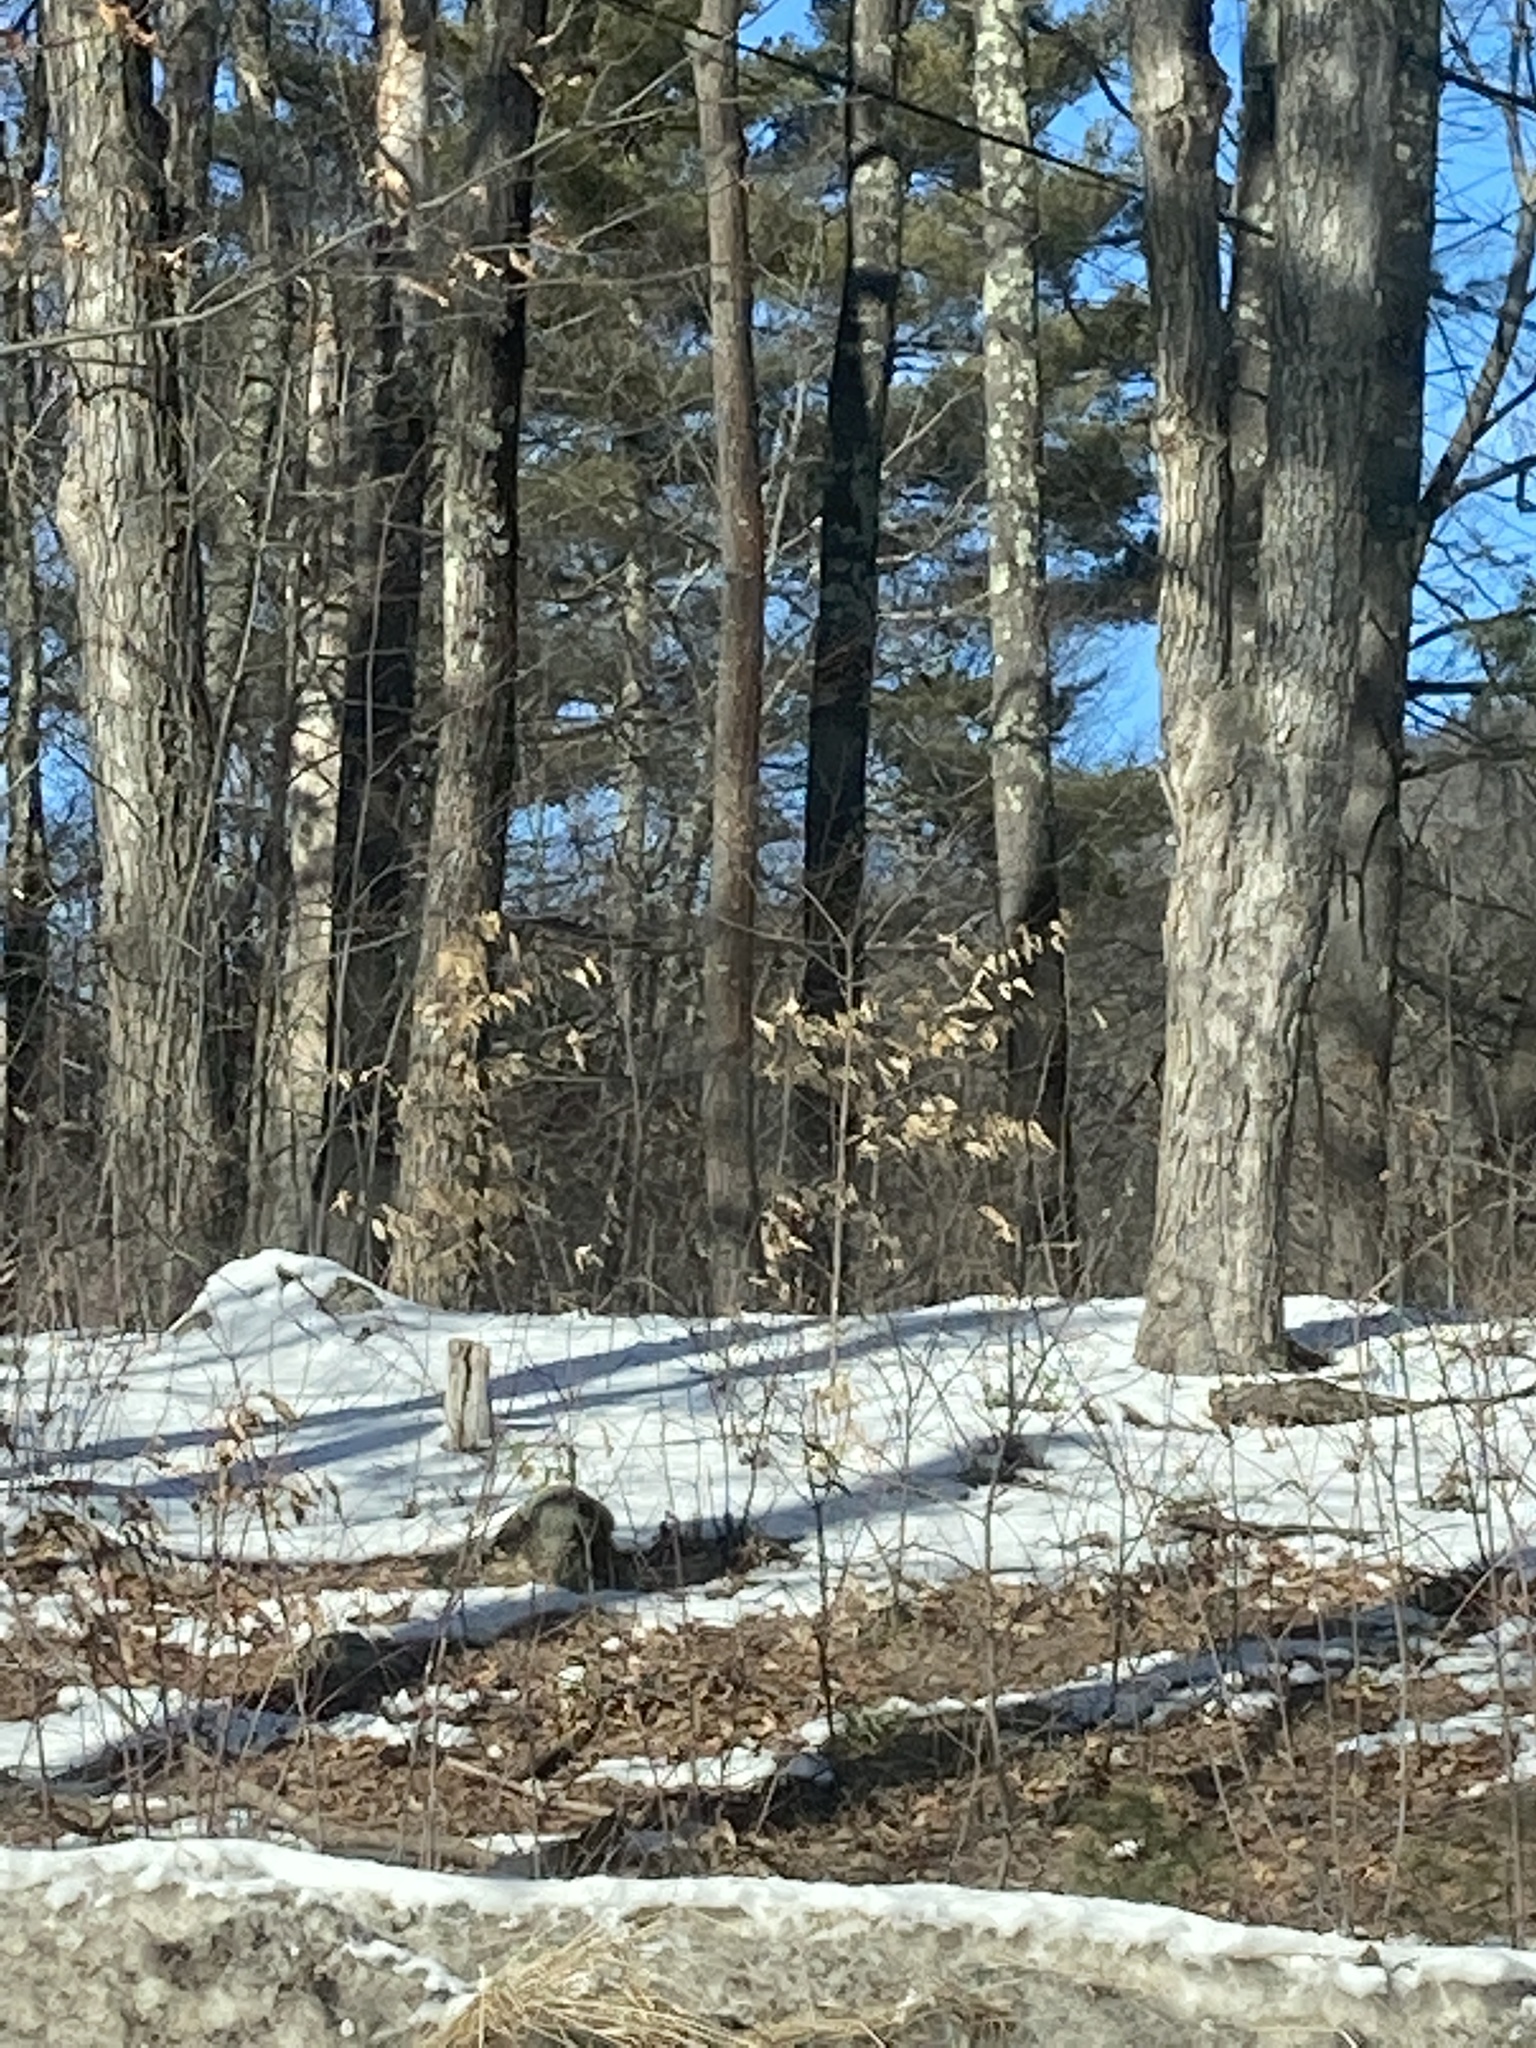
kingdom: Plantae
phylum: Tracheophyta
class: Magnoliopsida
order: Fagales
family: Fagaceae
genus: Fagus
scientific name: Fagus grandifolia
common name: American beech
